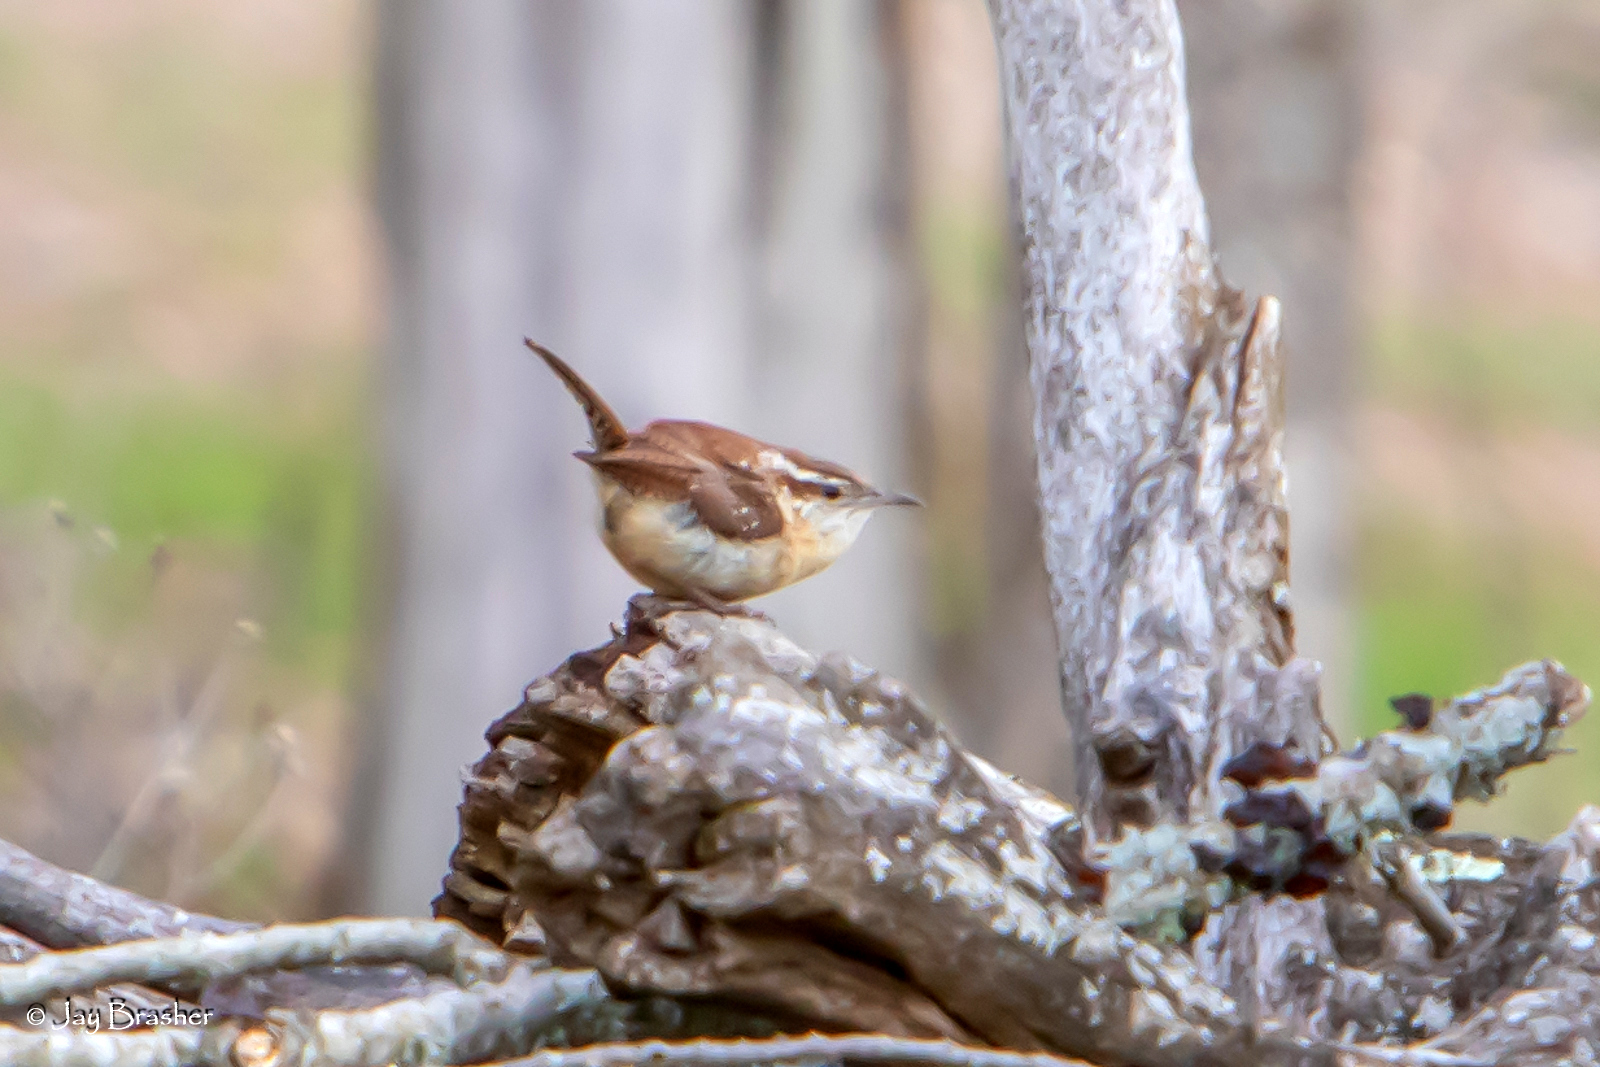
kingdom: Animalia
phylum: Chordata
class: Aves
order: Passeriformes
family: Troglodytidae
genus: Thryothorus
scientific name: Thryothorus ludovicianus
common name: Carolina wren
